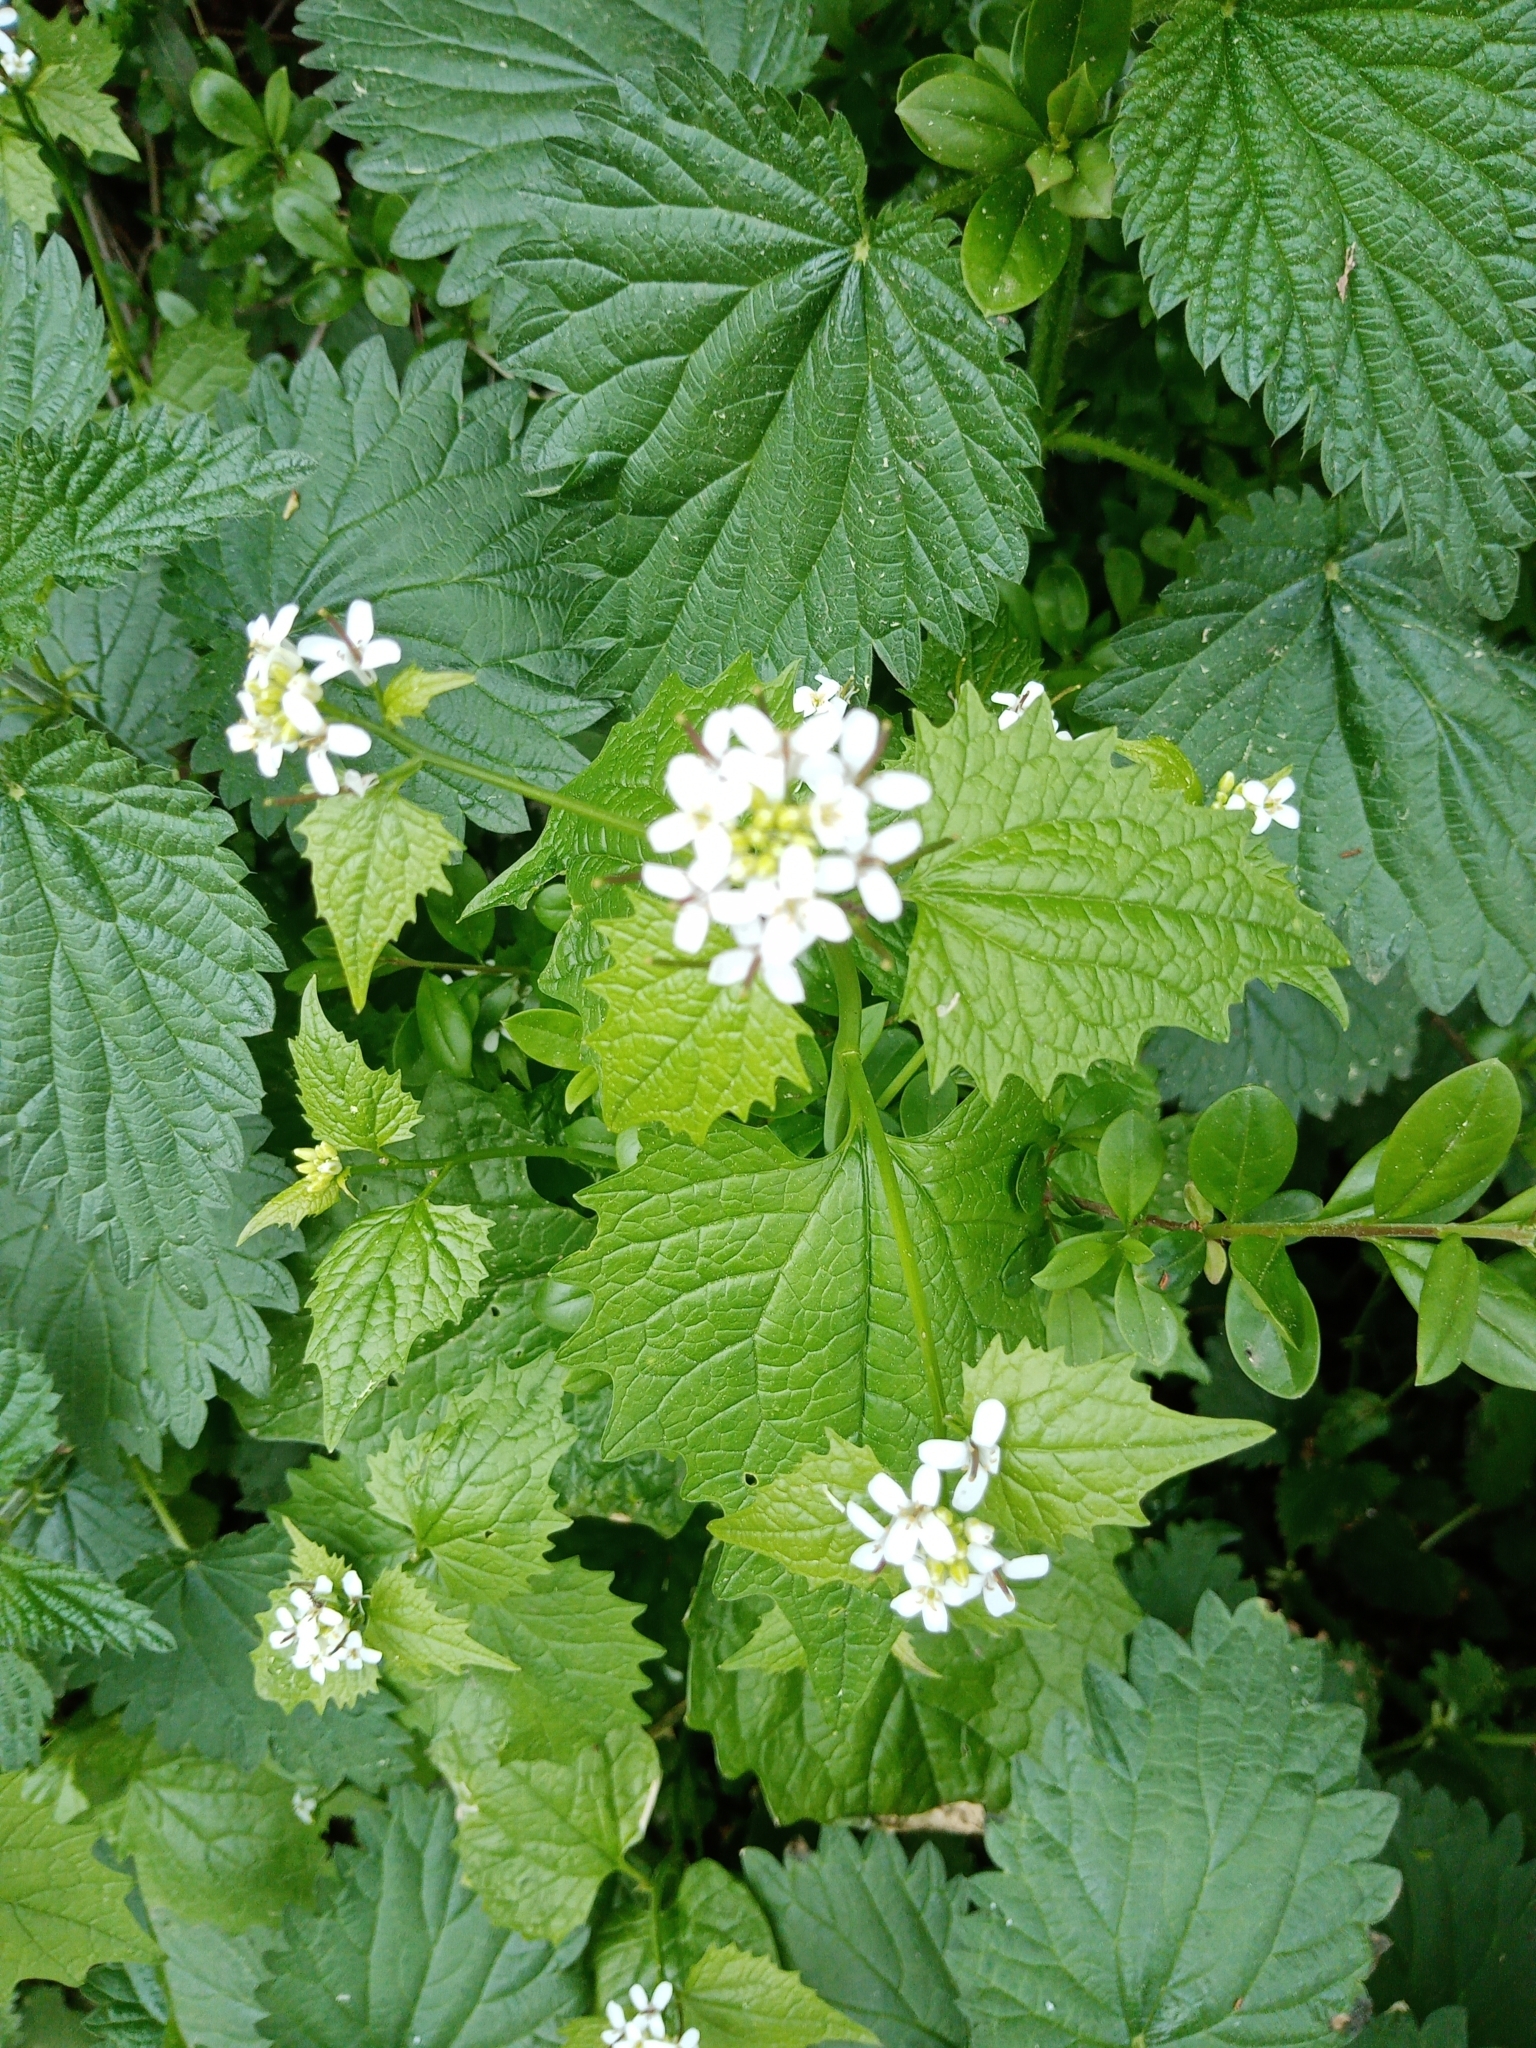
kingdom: Plantae
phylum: Tracheophyta
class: Magnoliopsida
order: Brassicales
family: Brassicaceae
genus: Alliaria
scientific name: Alliaria petiolata
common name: Garlic mustard
